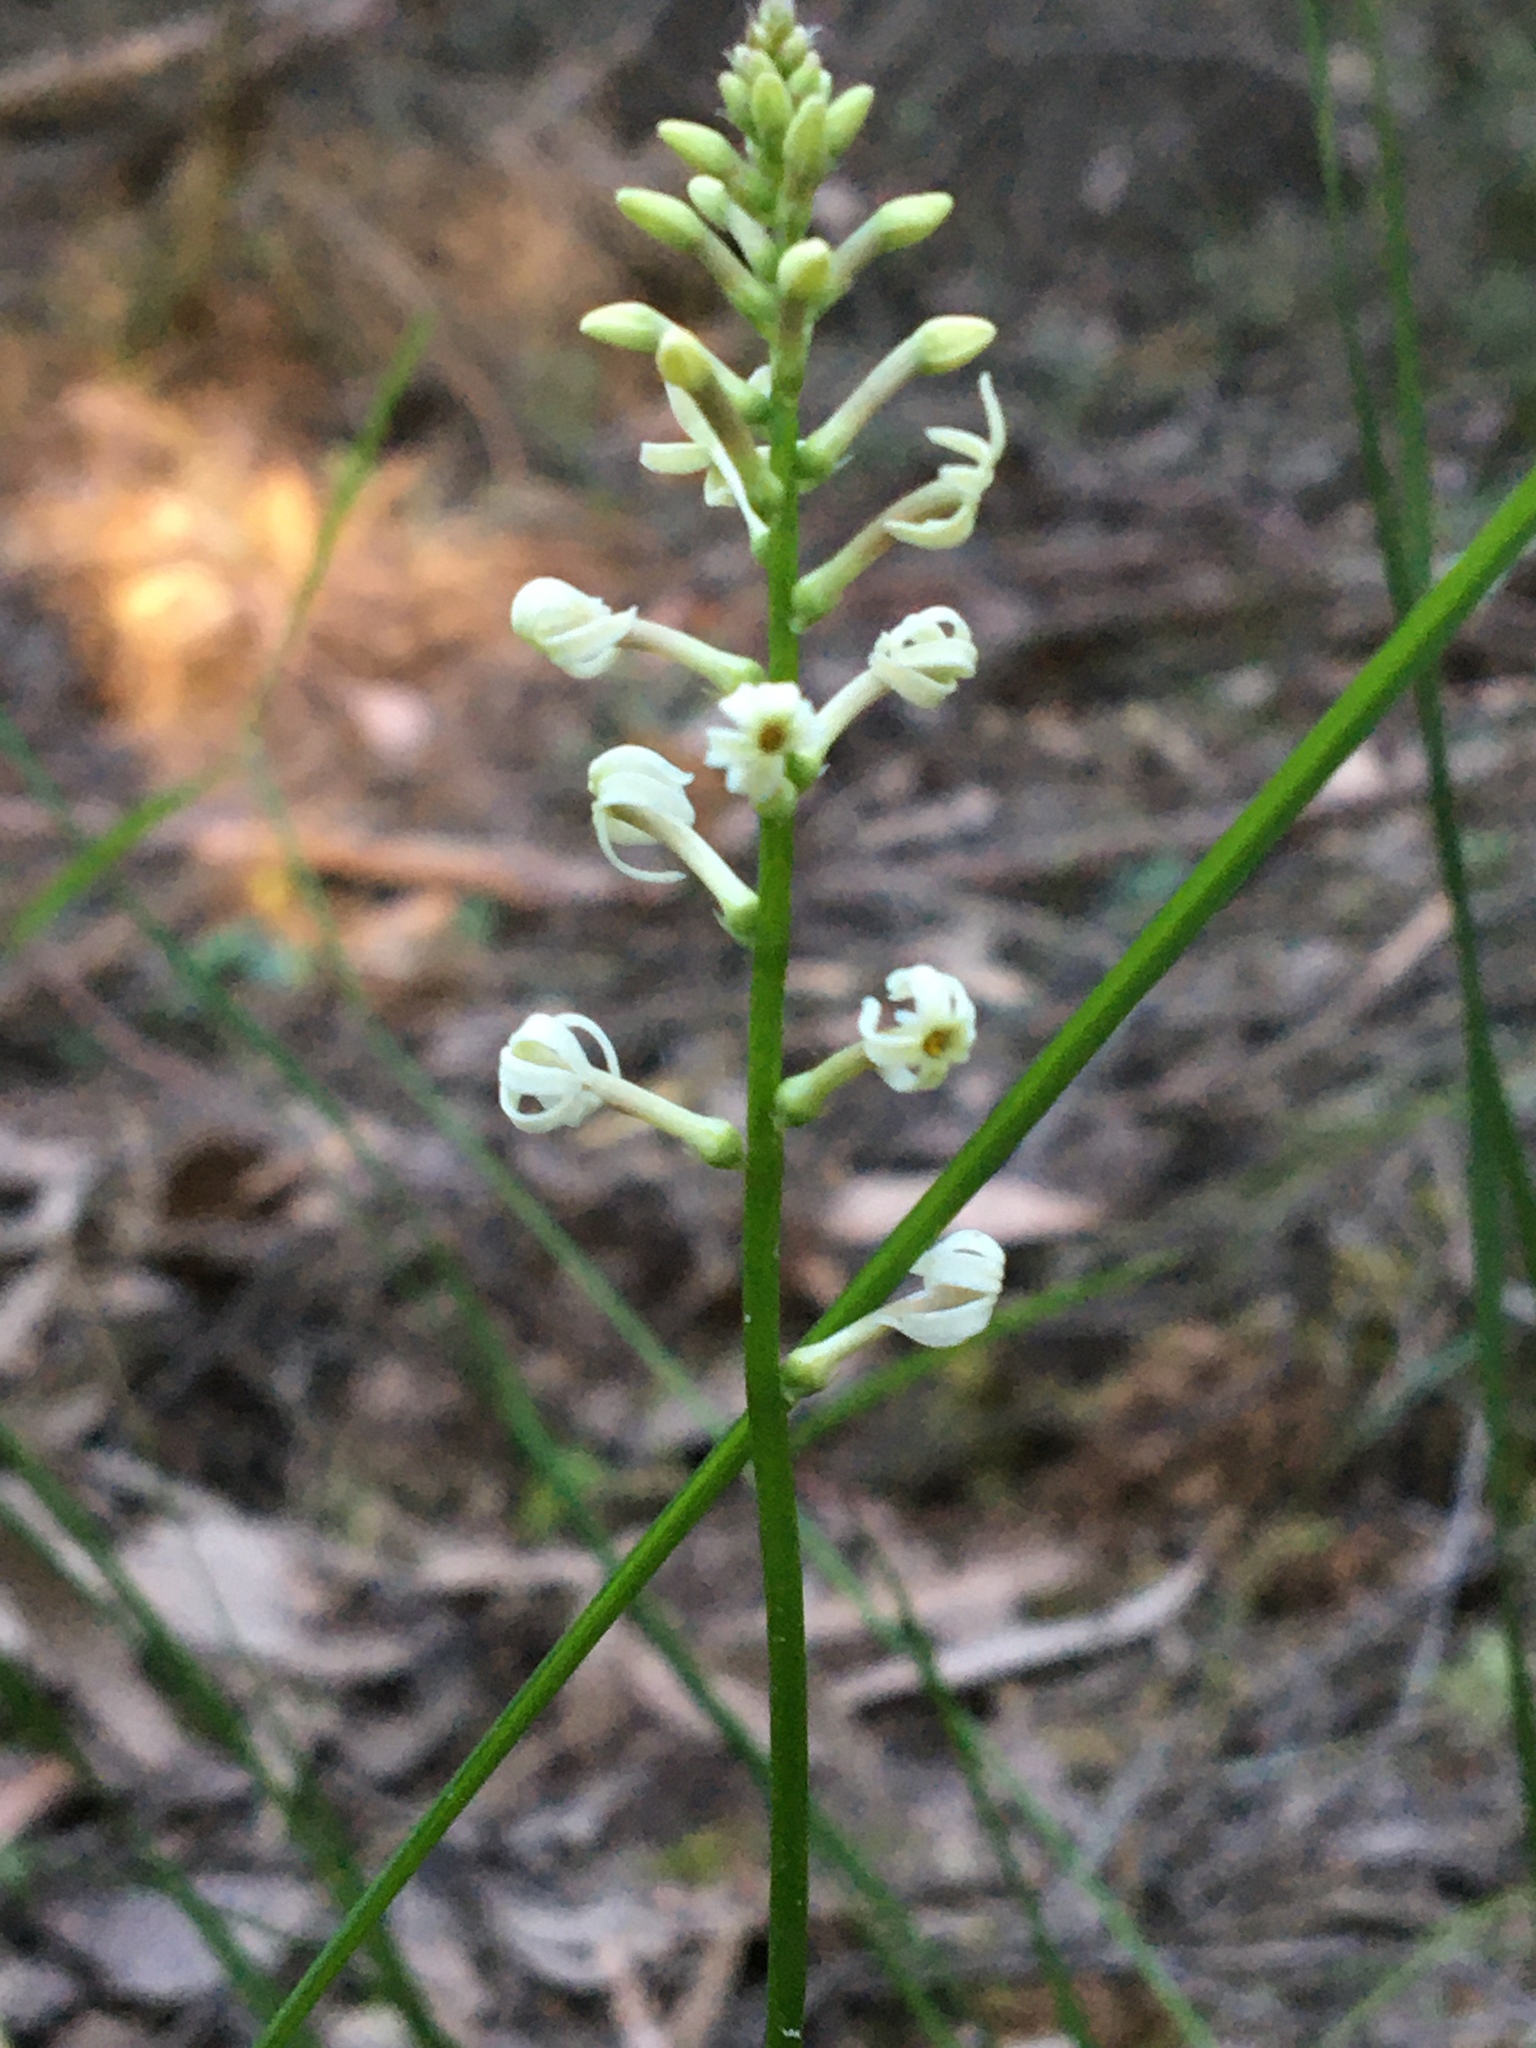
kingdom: Plantae
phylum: Tracheophyta
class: Magnoliopsida
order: Celastrales
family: Celastraceae
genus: Stackhousia
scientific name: Stackhousia monogyna
